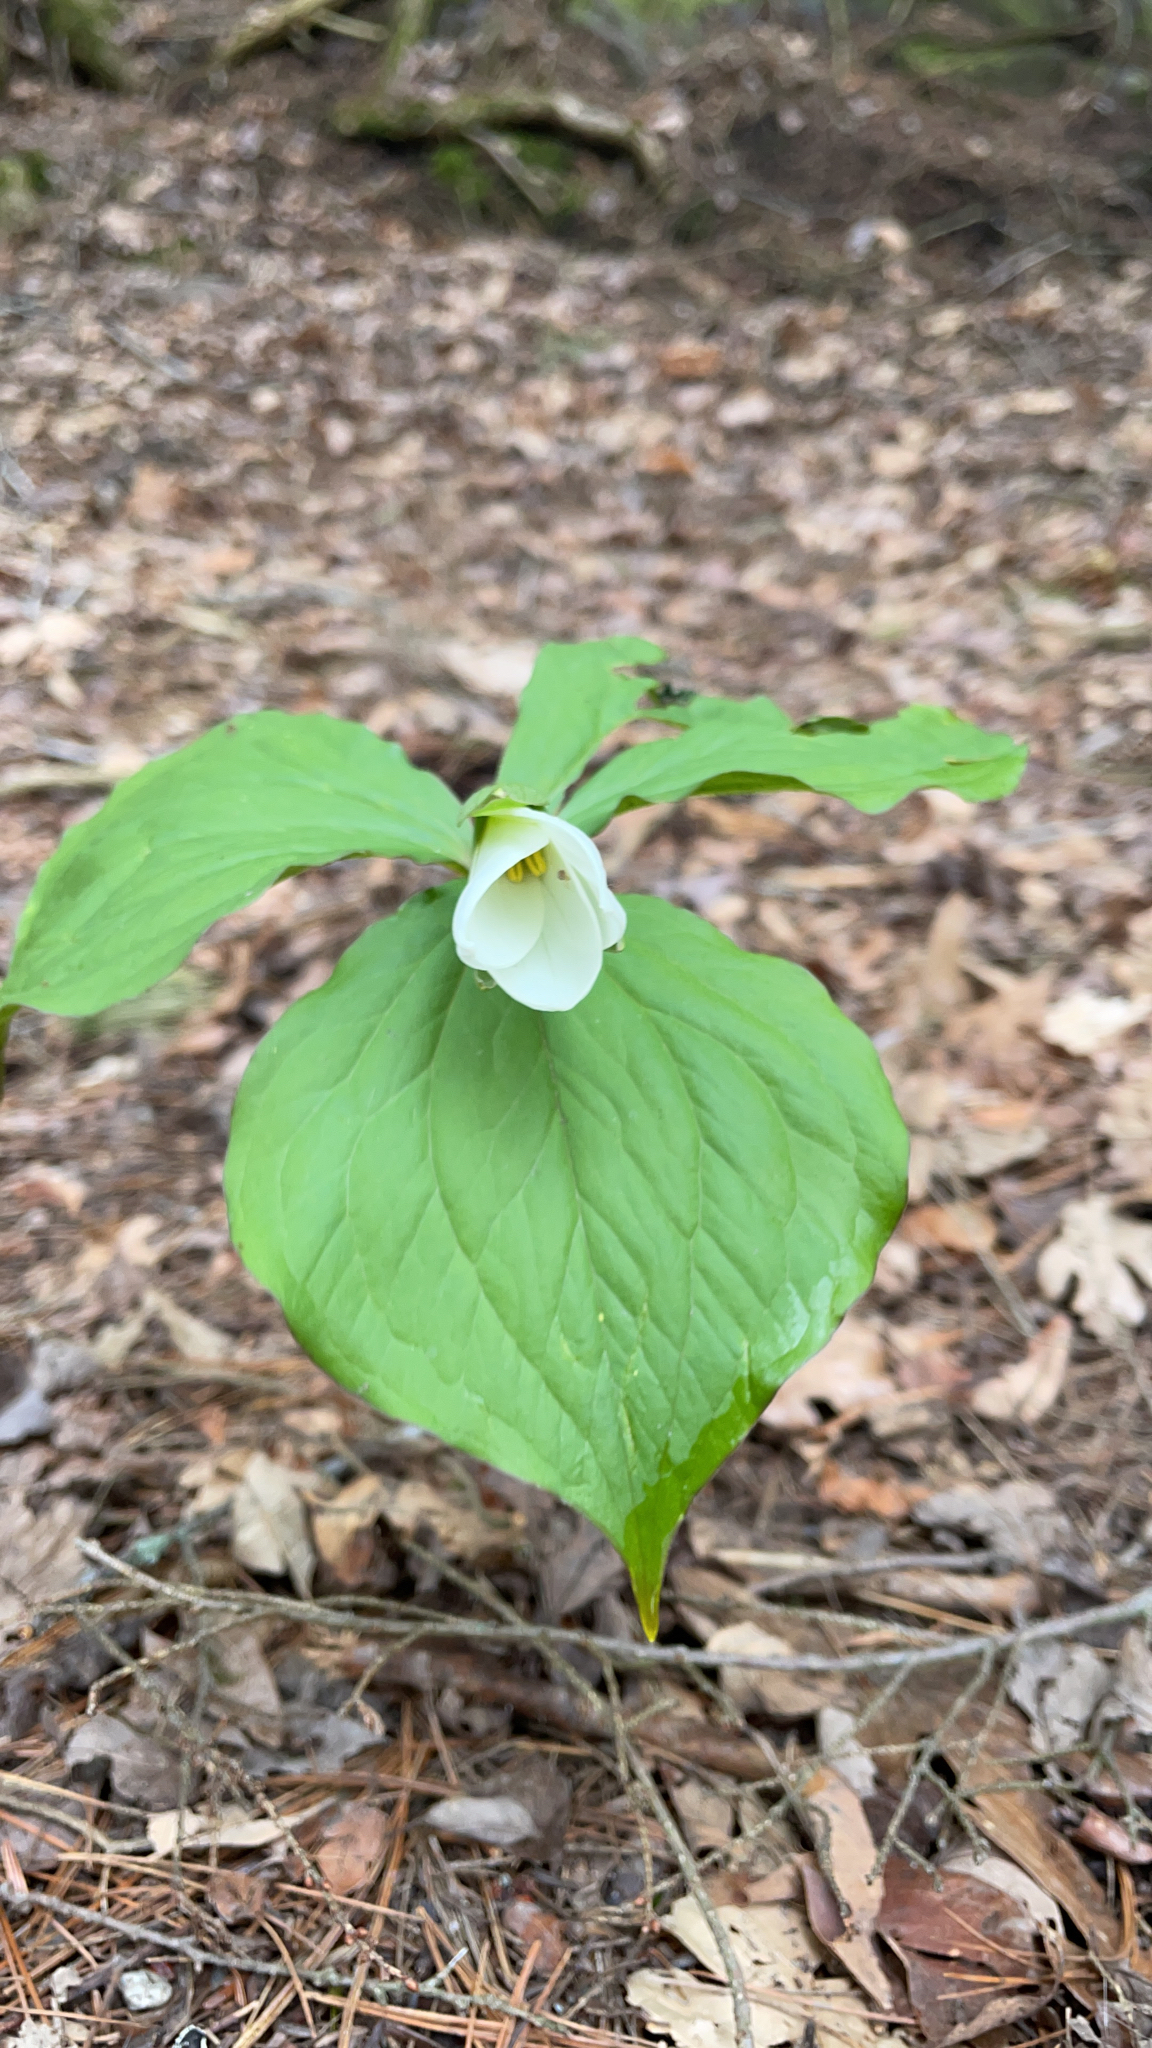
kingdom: Plantae
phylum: Tracheophyta
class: Liliopsida
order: Liliales
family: Melanthiaceae
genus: Trillium
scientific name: Trillium grandiflorum
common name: Great white trillium
